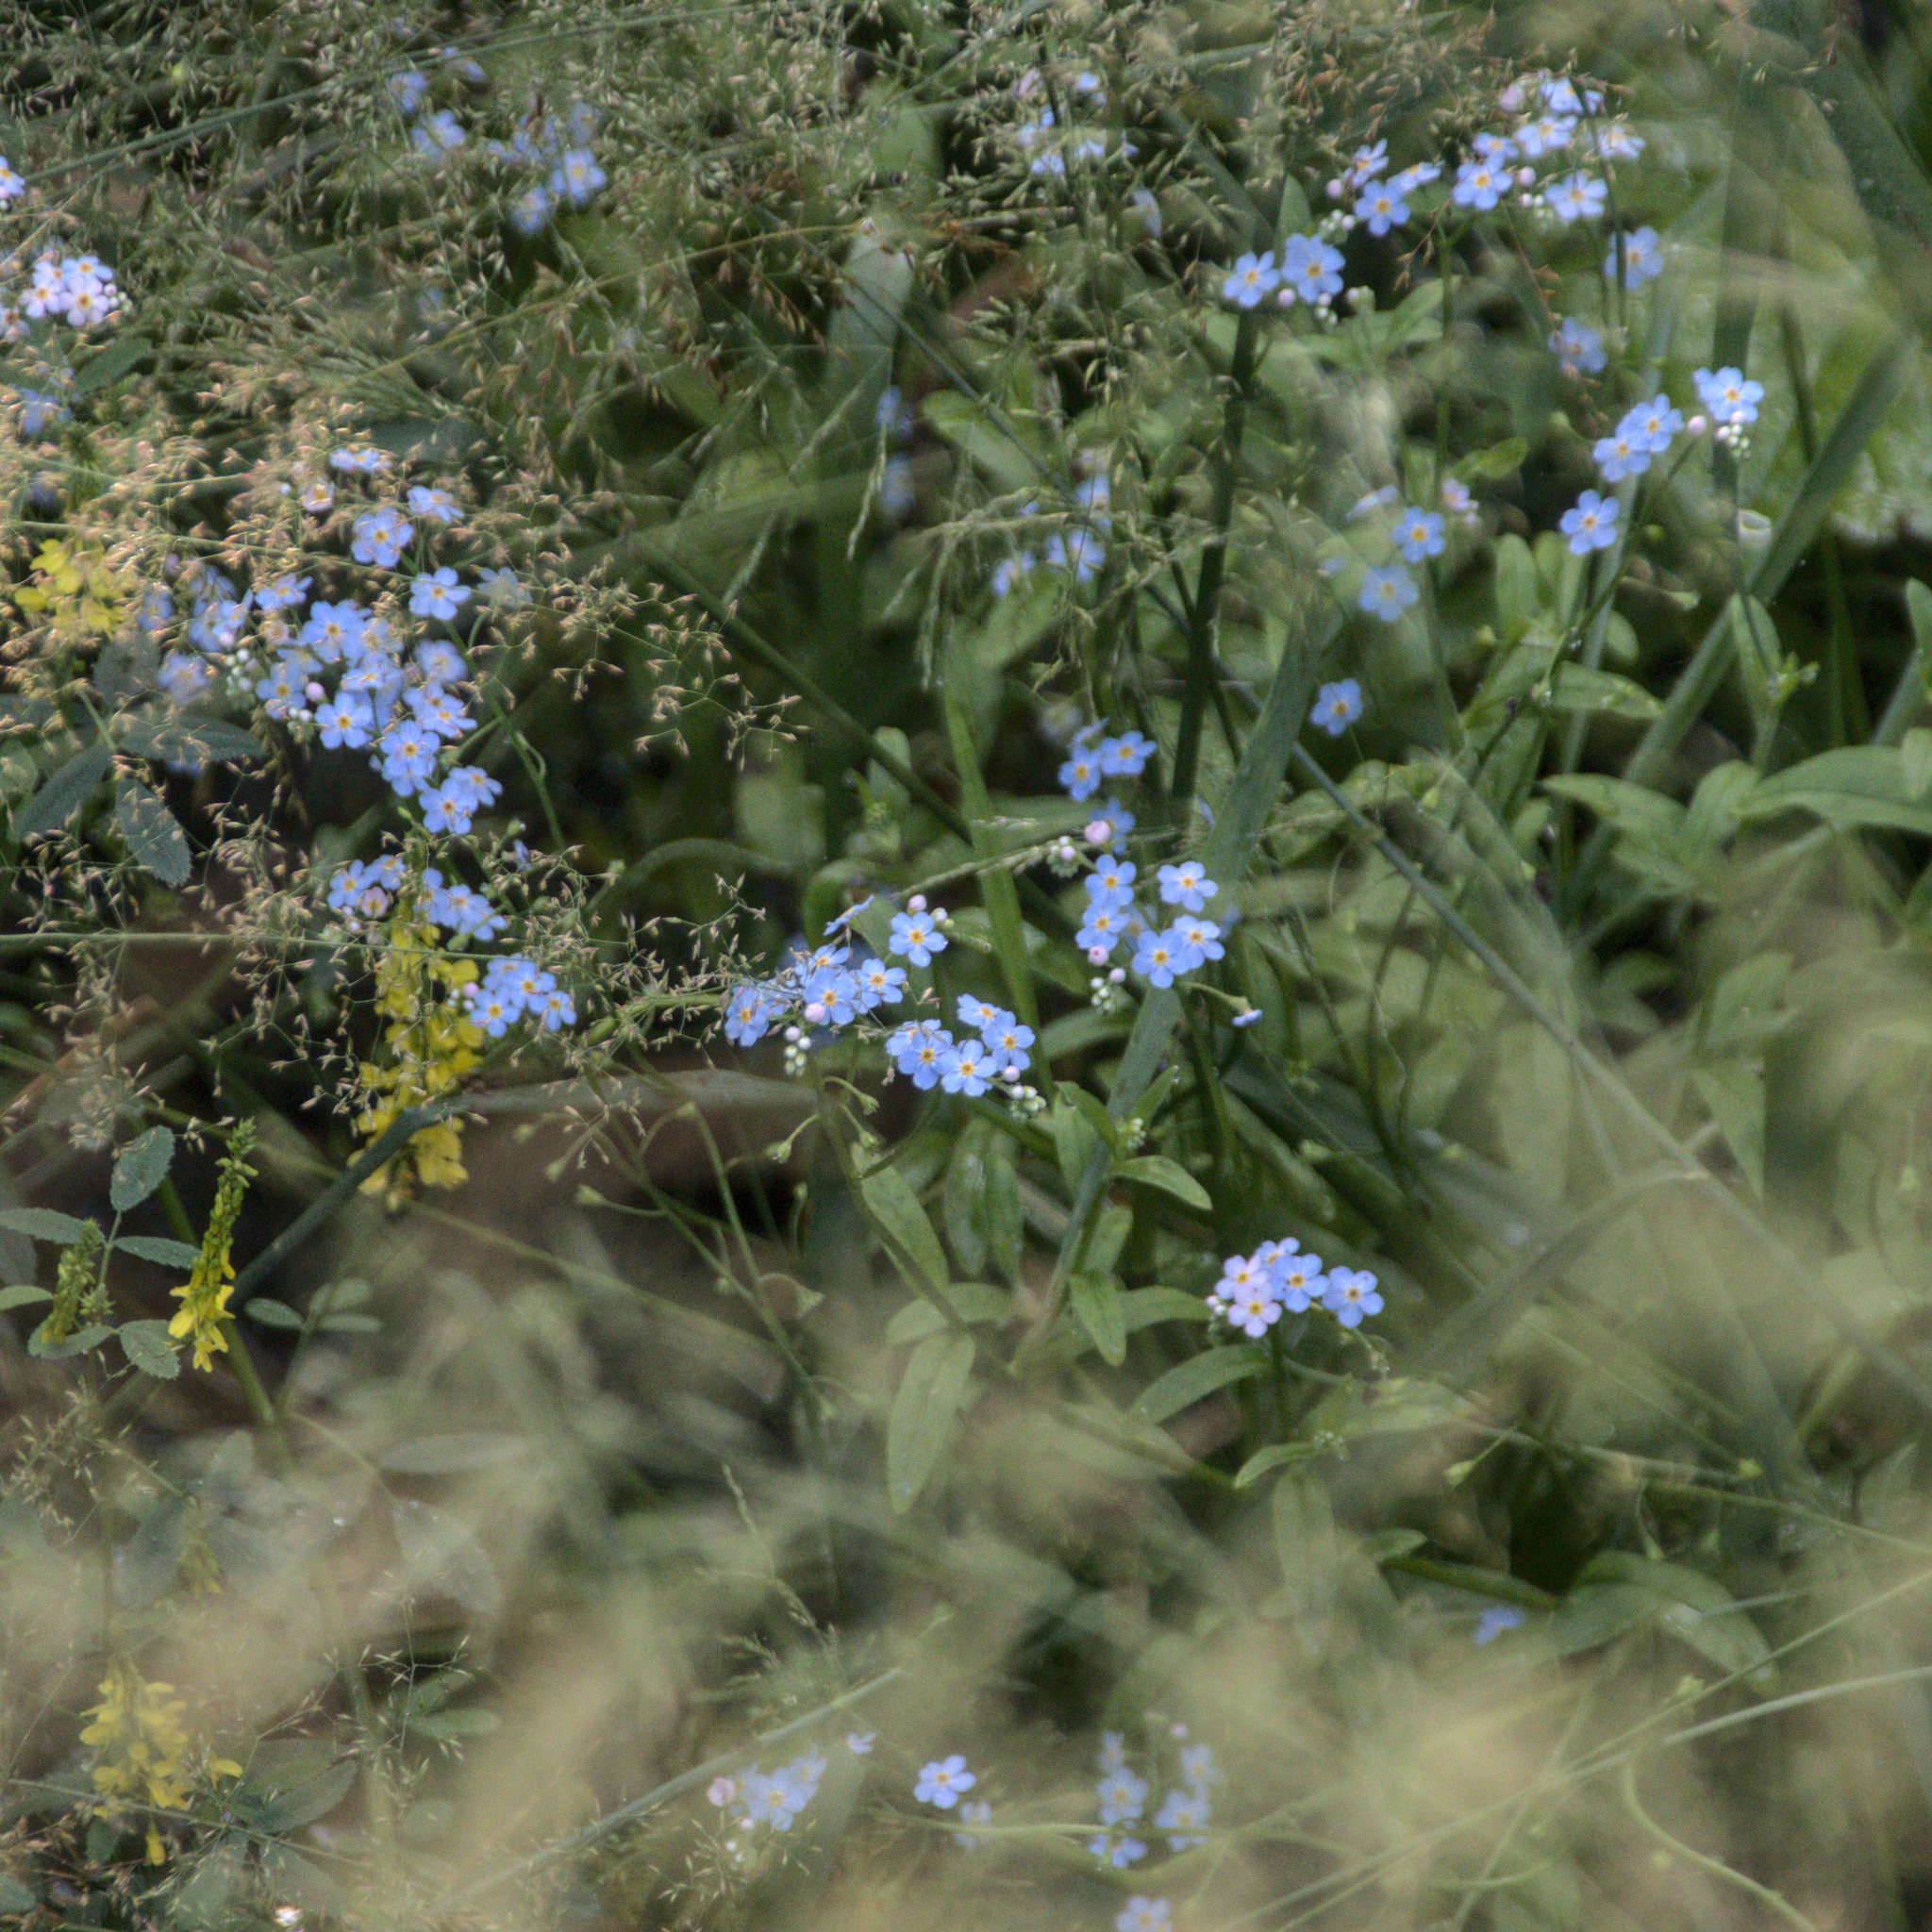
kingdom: Plantae
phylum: Tracheophyta
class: Magnoliopsida
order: Boraginales
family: Boraginaceae
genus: Myosotis
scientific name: Myosotis scorpioides
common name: Water forget-me-not
